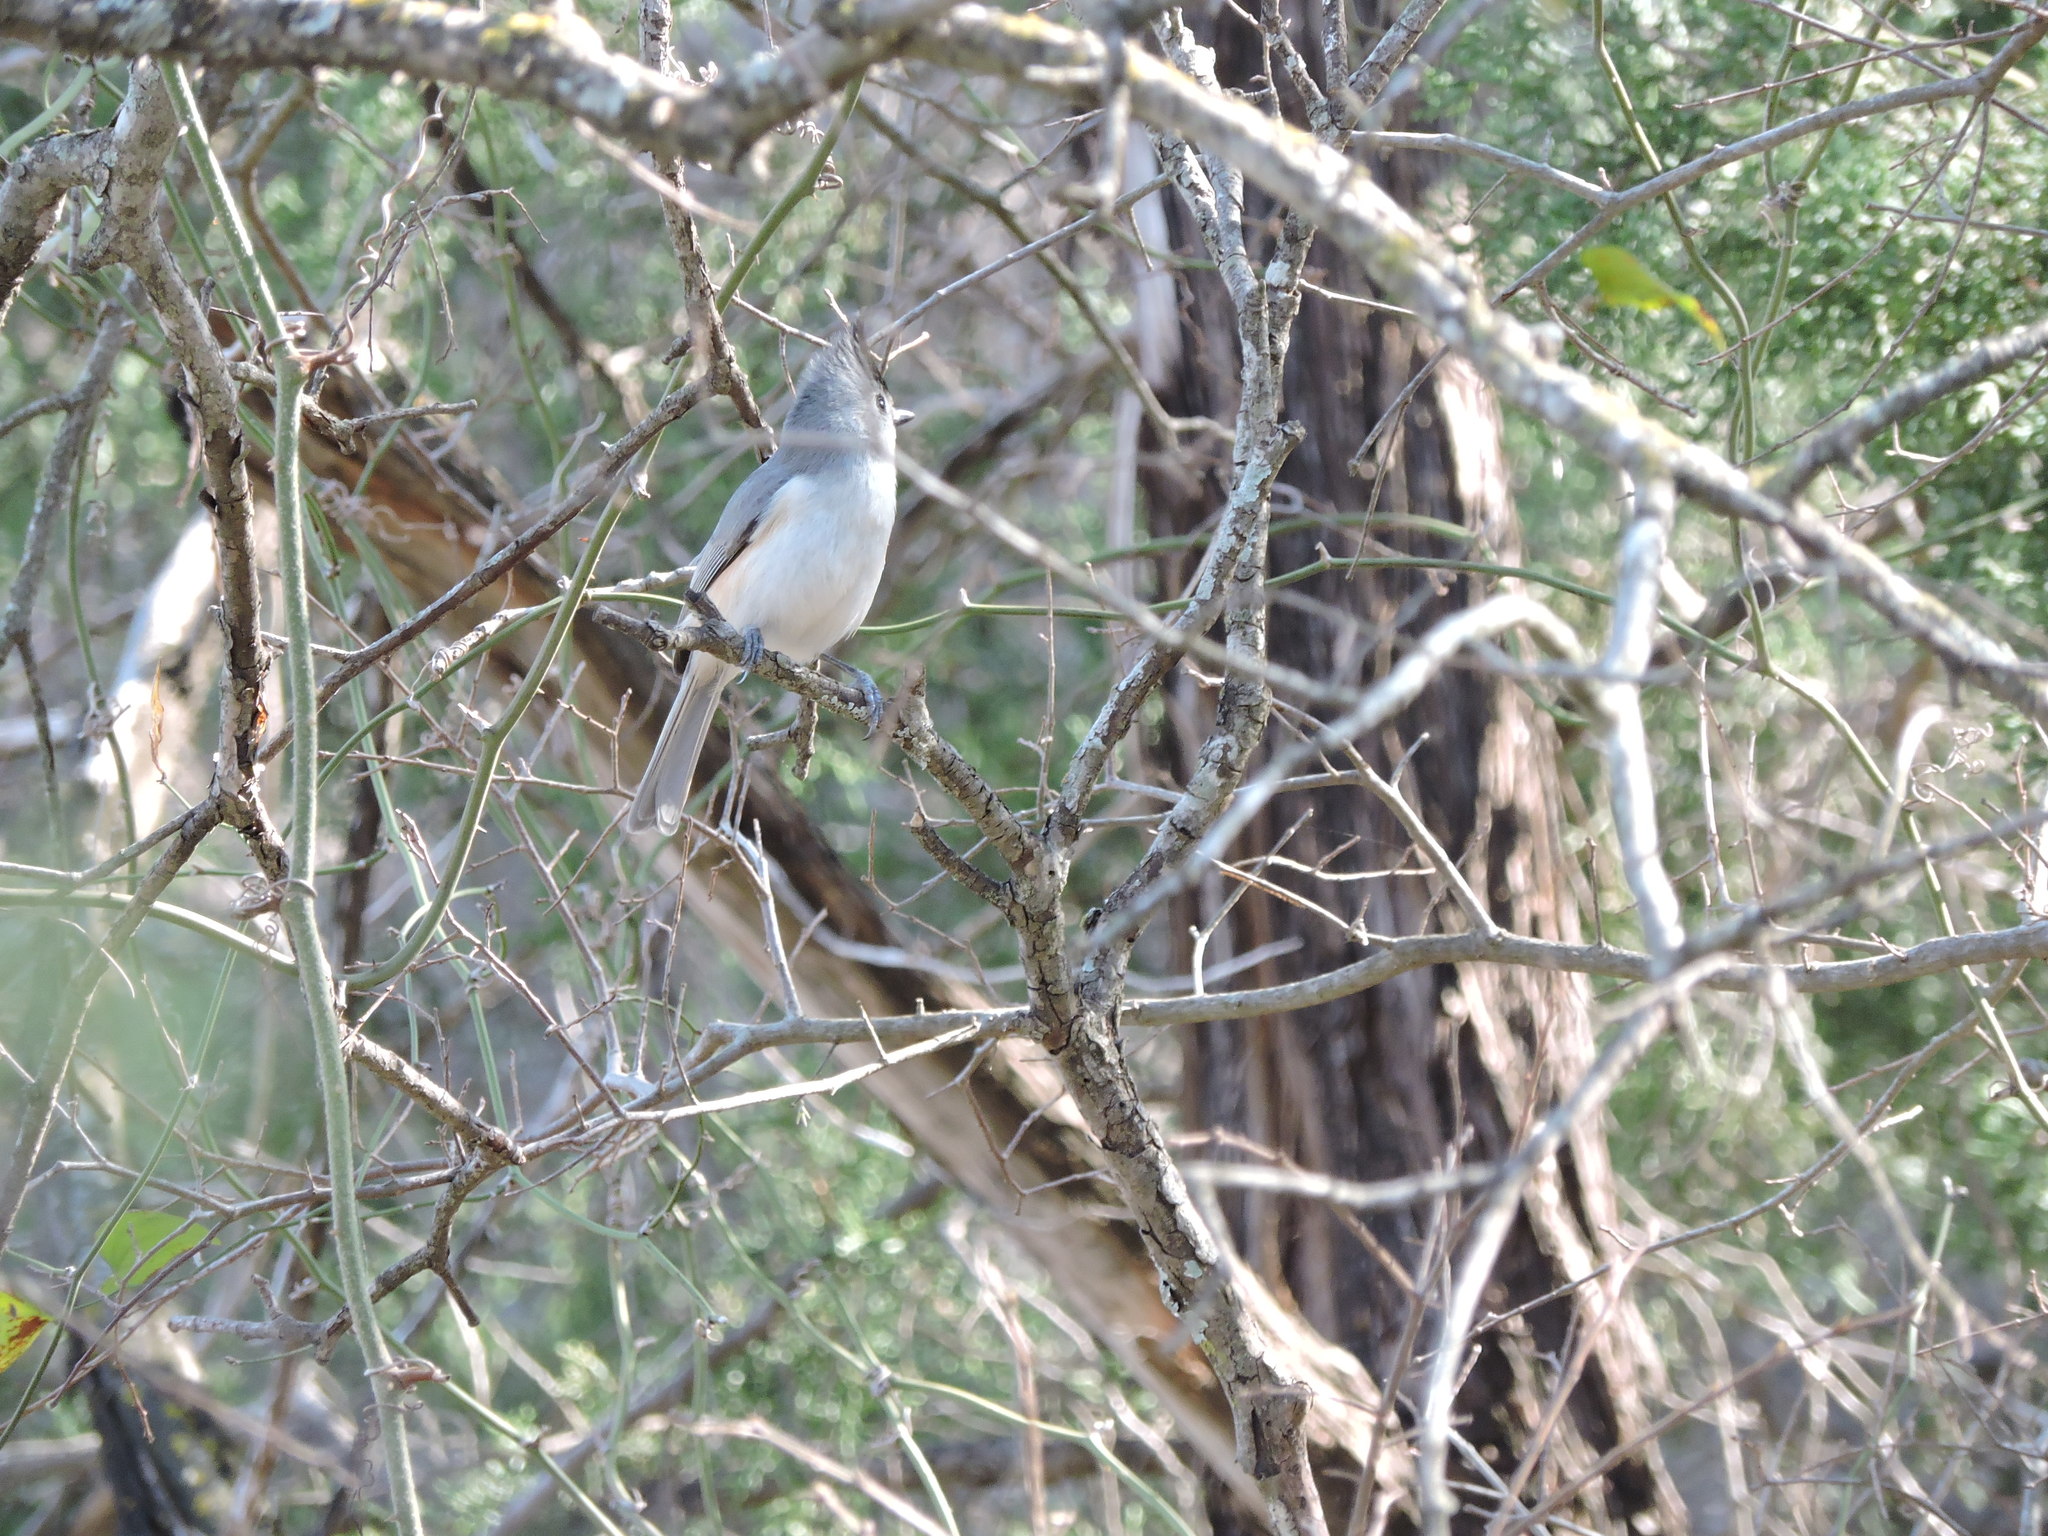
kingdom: Animalia
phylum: Chordata
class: Aves
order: Passeriformes
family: Paridae
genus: Baeolophus
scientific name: Baeolophus atricristatus
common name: Black-crested titmouse
